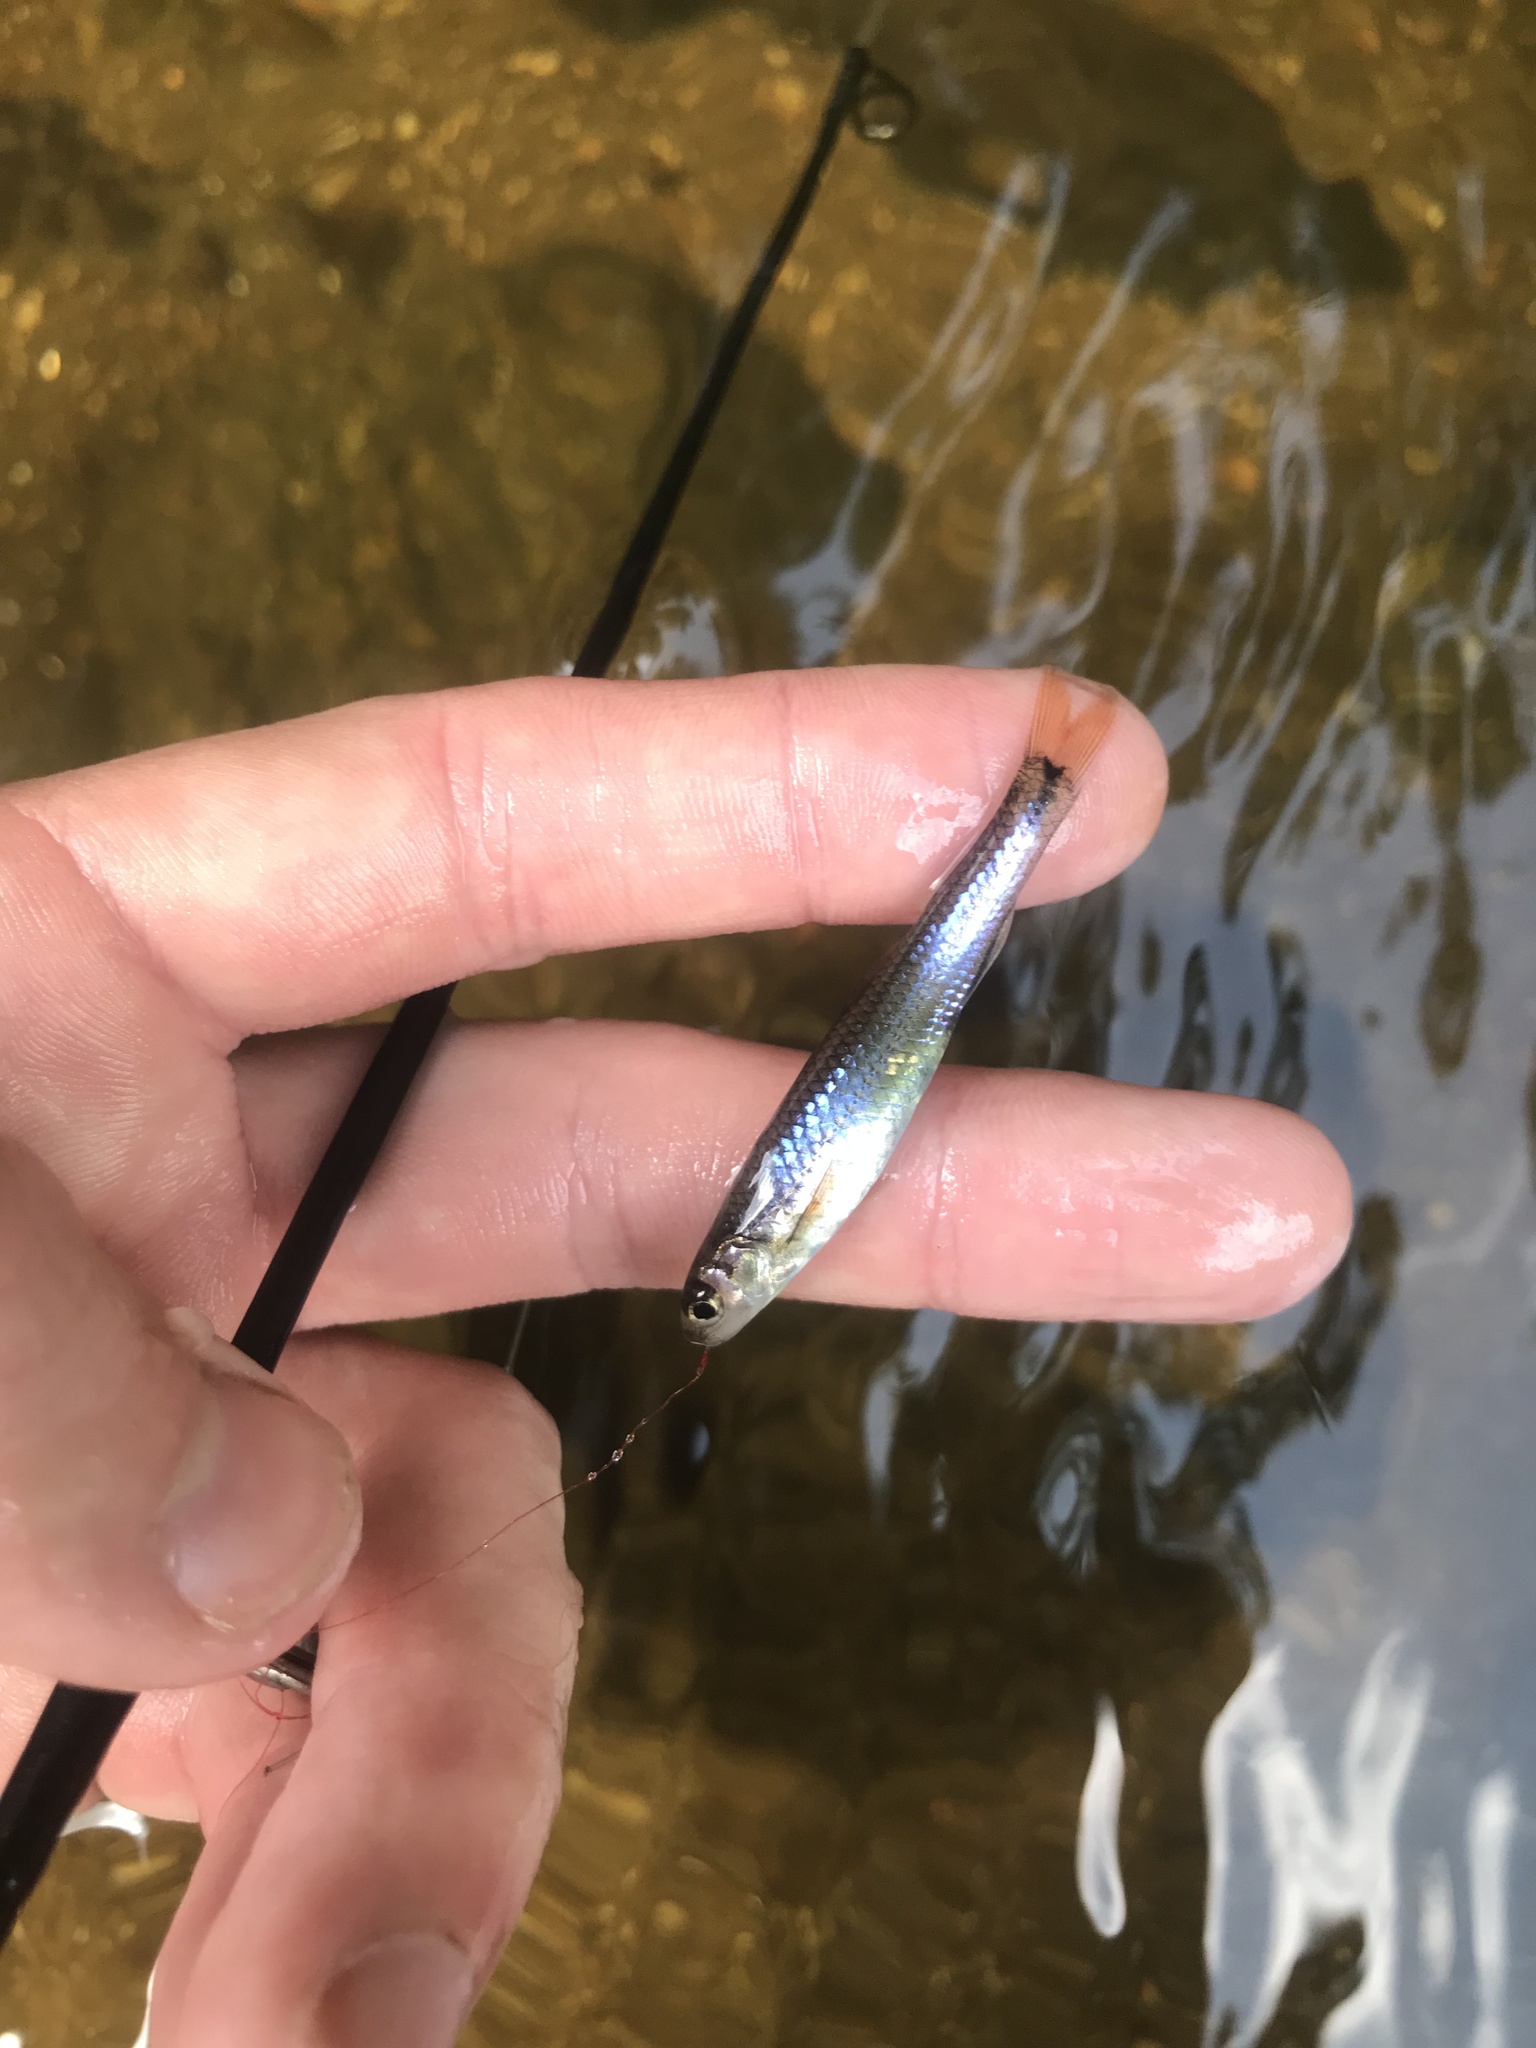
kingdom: Animalia
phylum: Chordata
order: Cypriniformes
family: Cyprinidae
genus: Notropis
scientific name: Notropis
